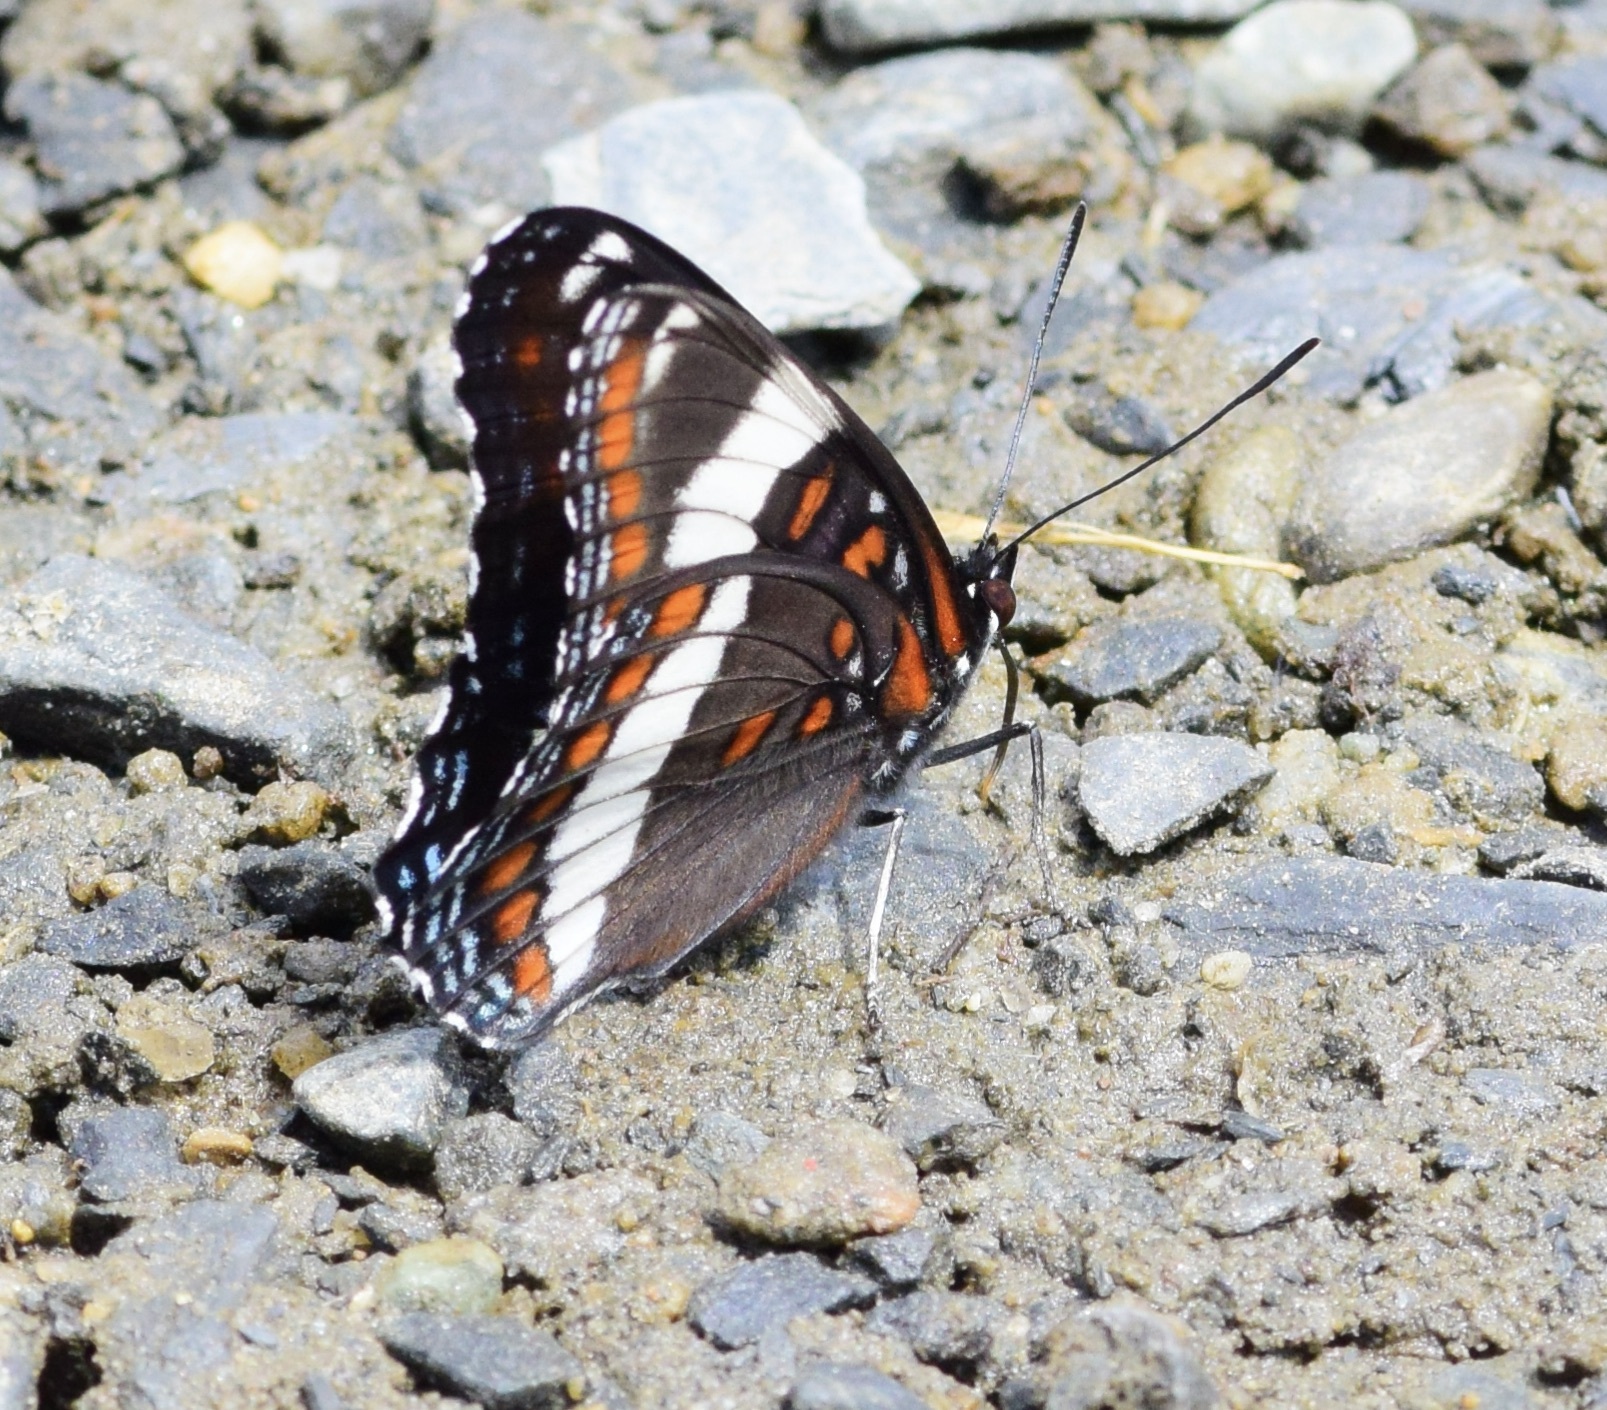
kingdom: Animalia
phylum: Arthropoda
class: Insecta
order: Lepidoptera
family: Nymphalidae
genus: Limenitis
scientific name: Limenitis arthemis
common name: Red-spotted admiral
